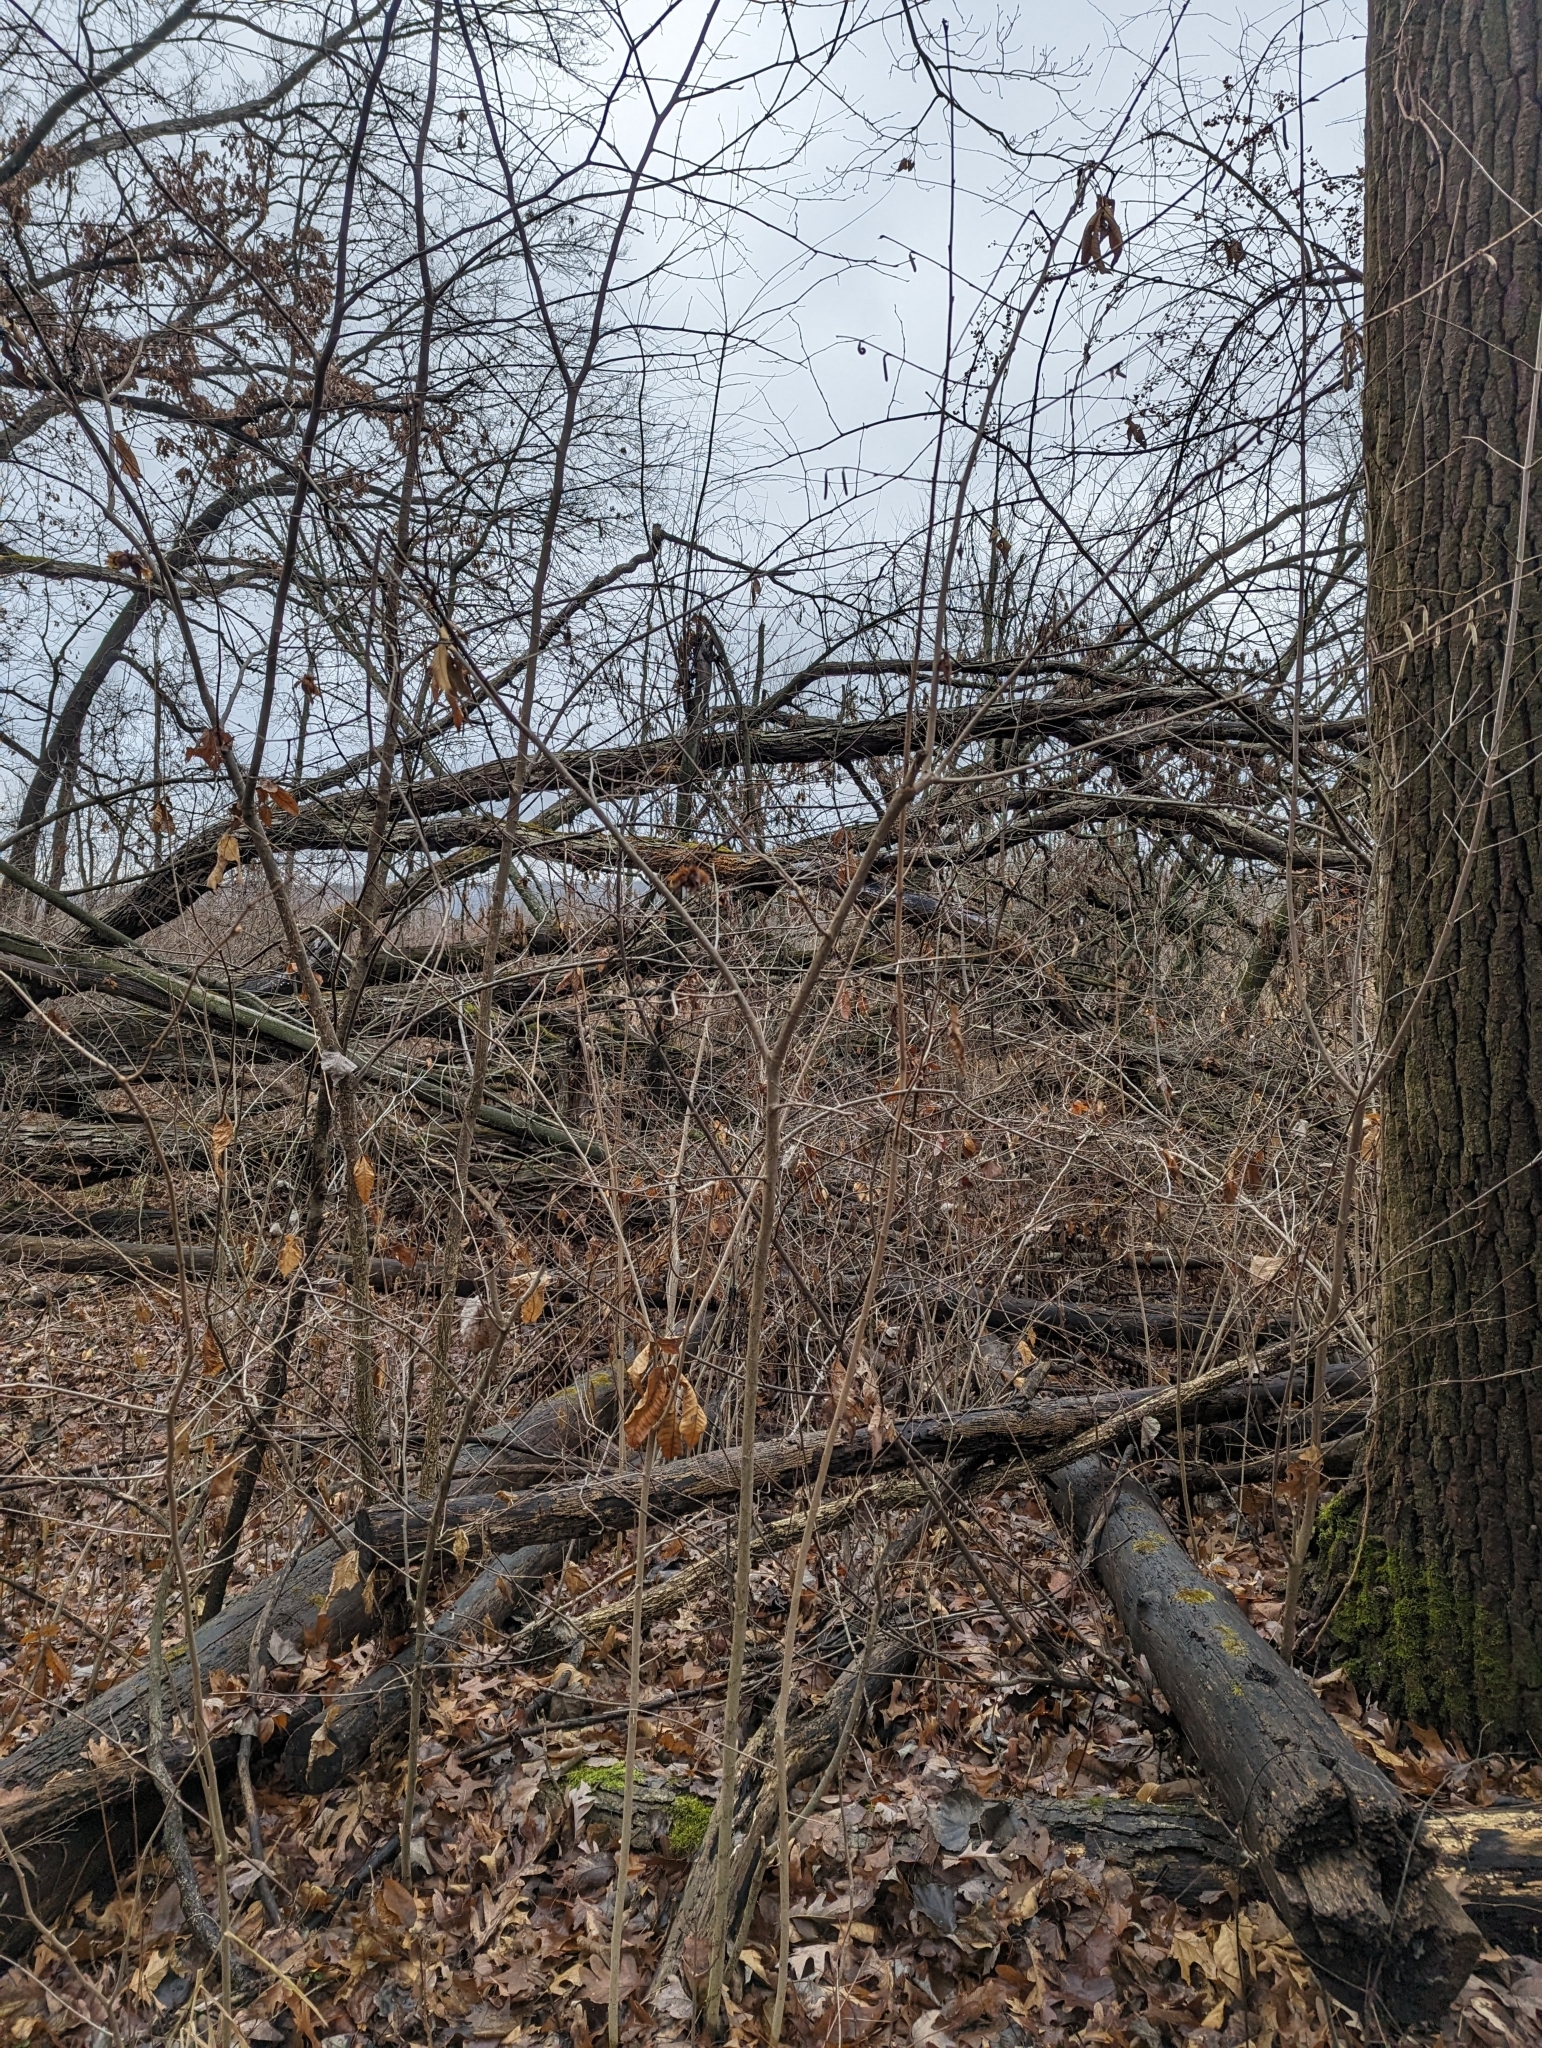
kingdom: Plantae
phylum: Tracheophyta
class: Magnoliopsida
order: Fagales
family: Betulaceae
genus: Corylus
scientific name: Corylus americana
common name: American hazel
